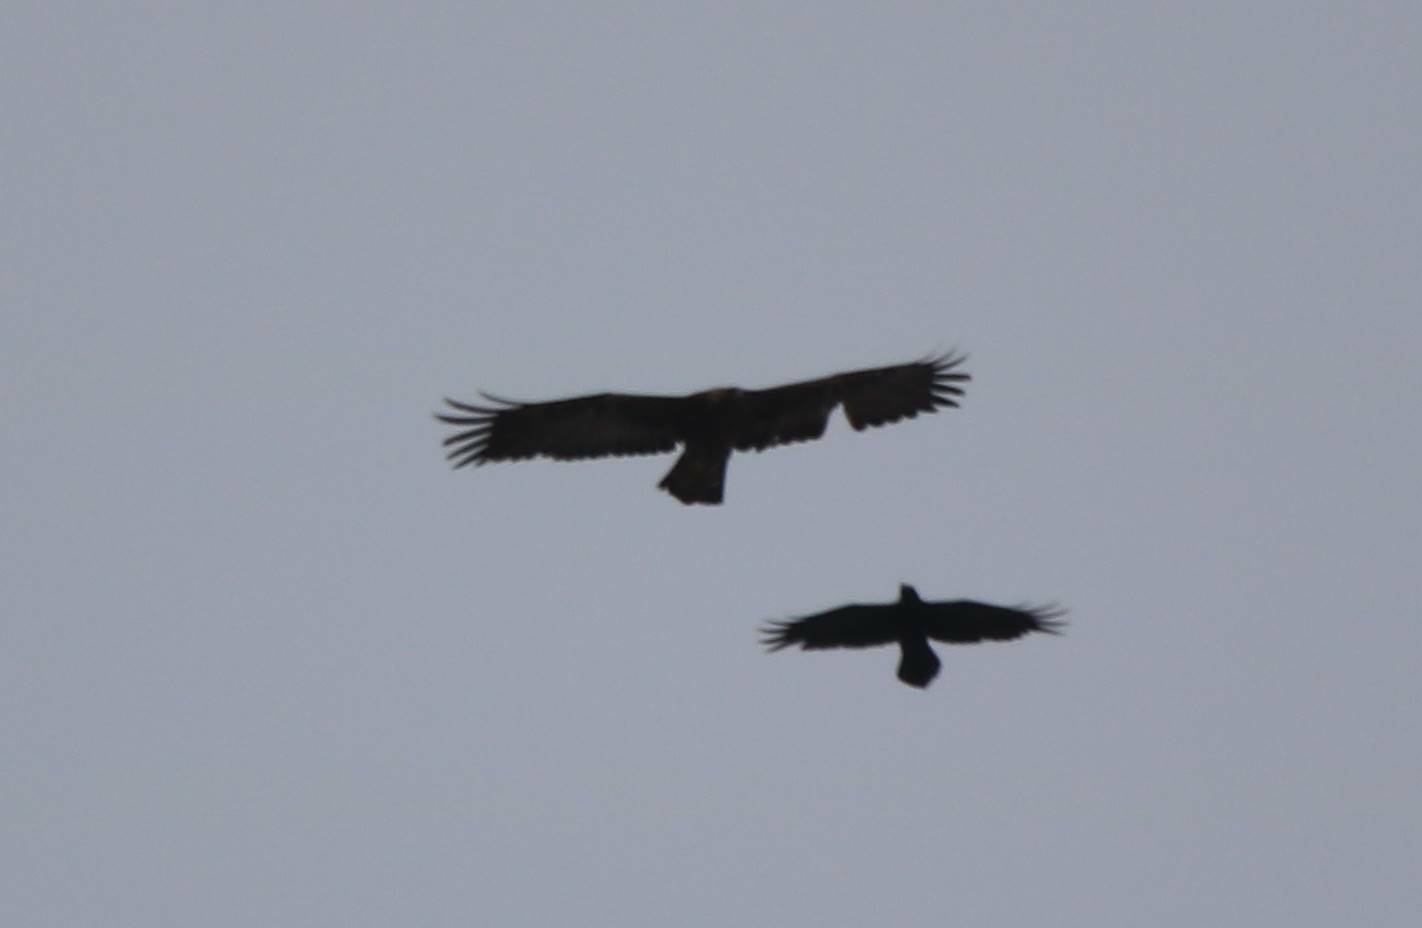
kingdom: Animalia
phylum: Chordata
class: Aves
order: Accipitriformes
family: Accipitridae
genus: Aquila
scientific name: Aquila chrysaetos
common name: Golden eagle
